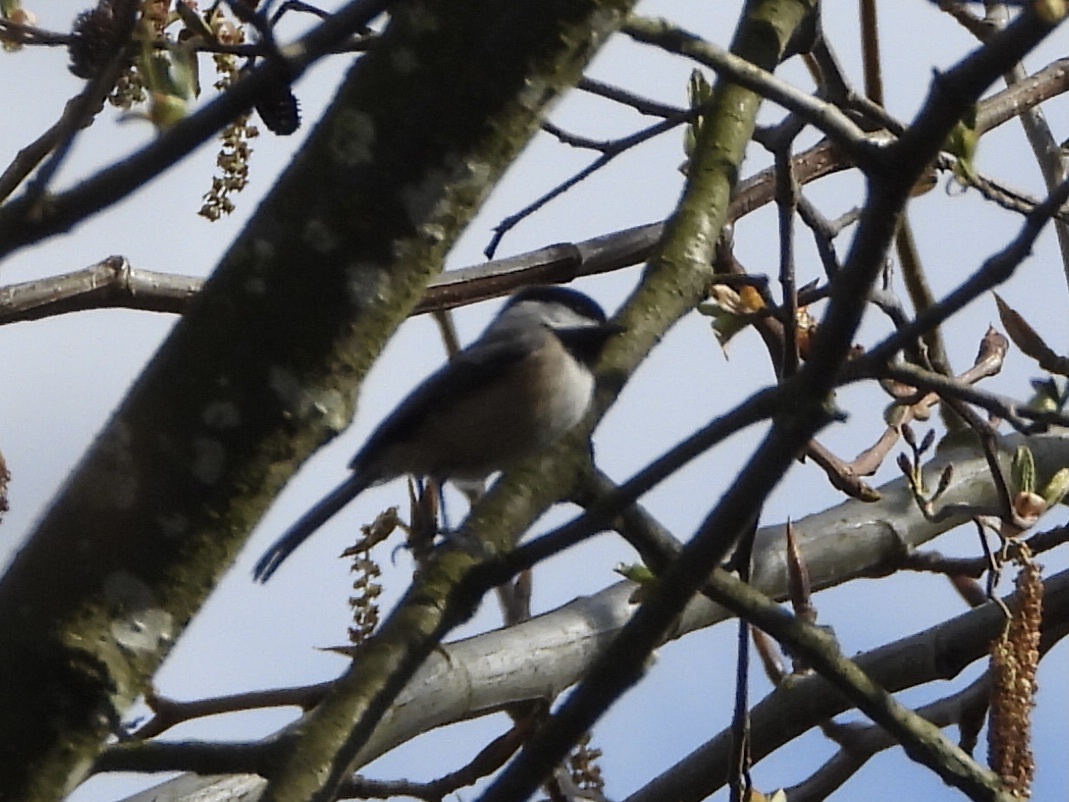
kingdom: Animalia
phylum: Chordata
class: Aves
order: Passeriformes
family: Paridae
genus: Poecile
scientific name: Poecile atricapillus
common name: Black-capped chickadee
